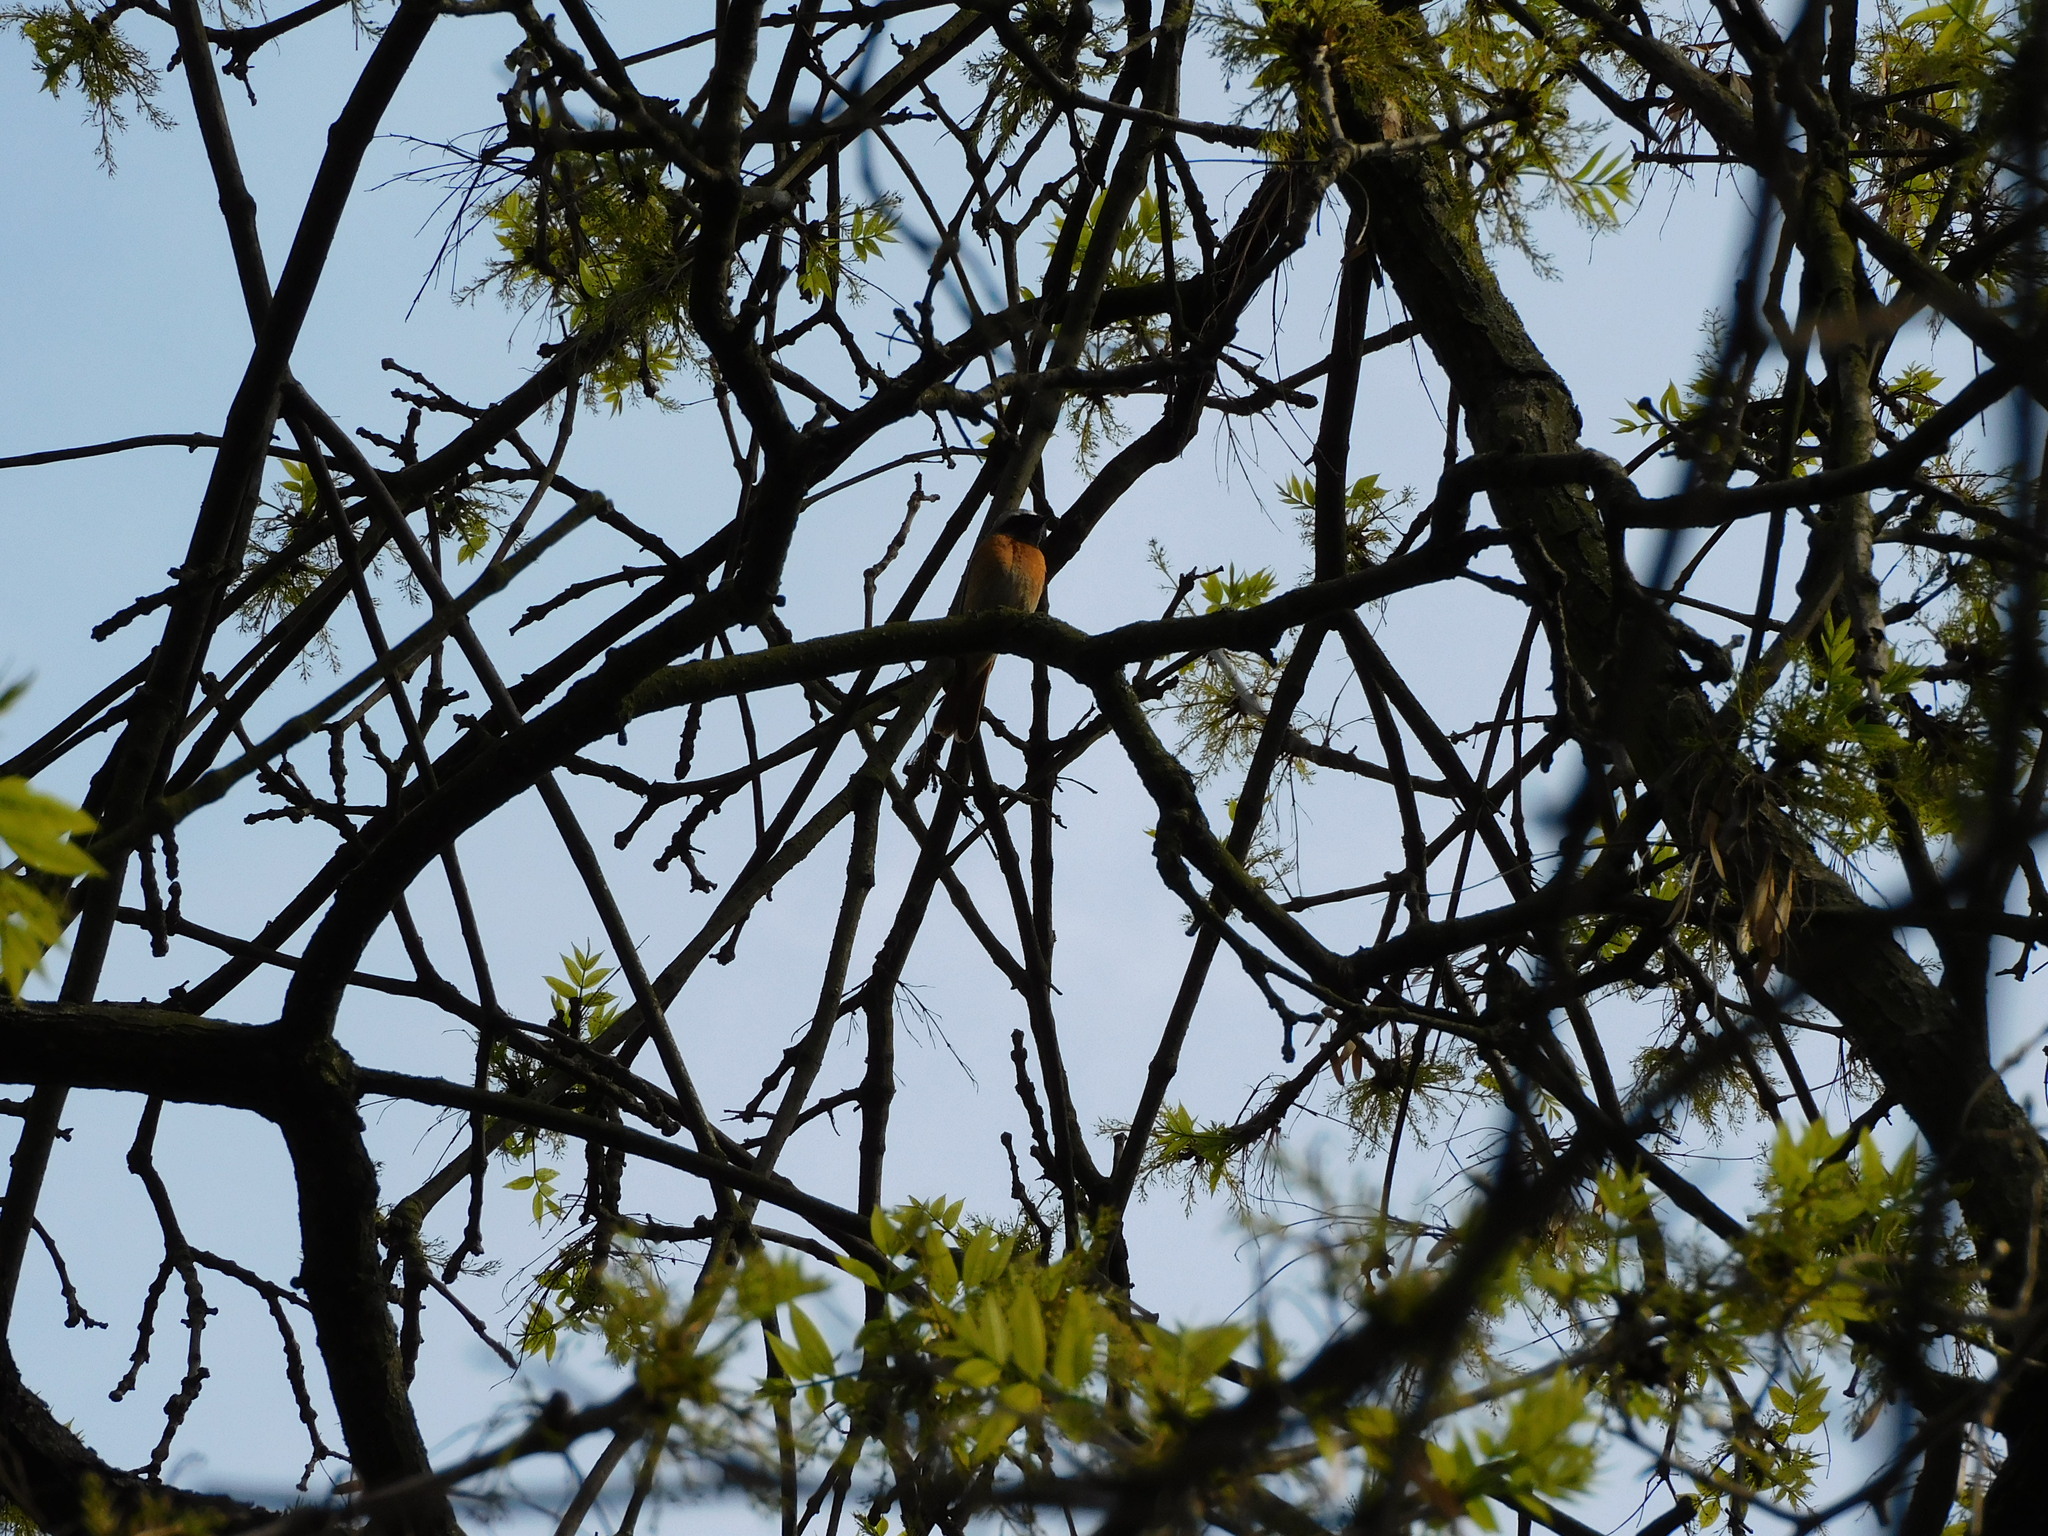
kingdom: Animalia
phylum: Chordata
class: Aves
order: Passeriformes
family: Muscicapidae
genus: Phoenicurus
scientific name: Phoenicurus phoenicurus
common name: Common redstart
